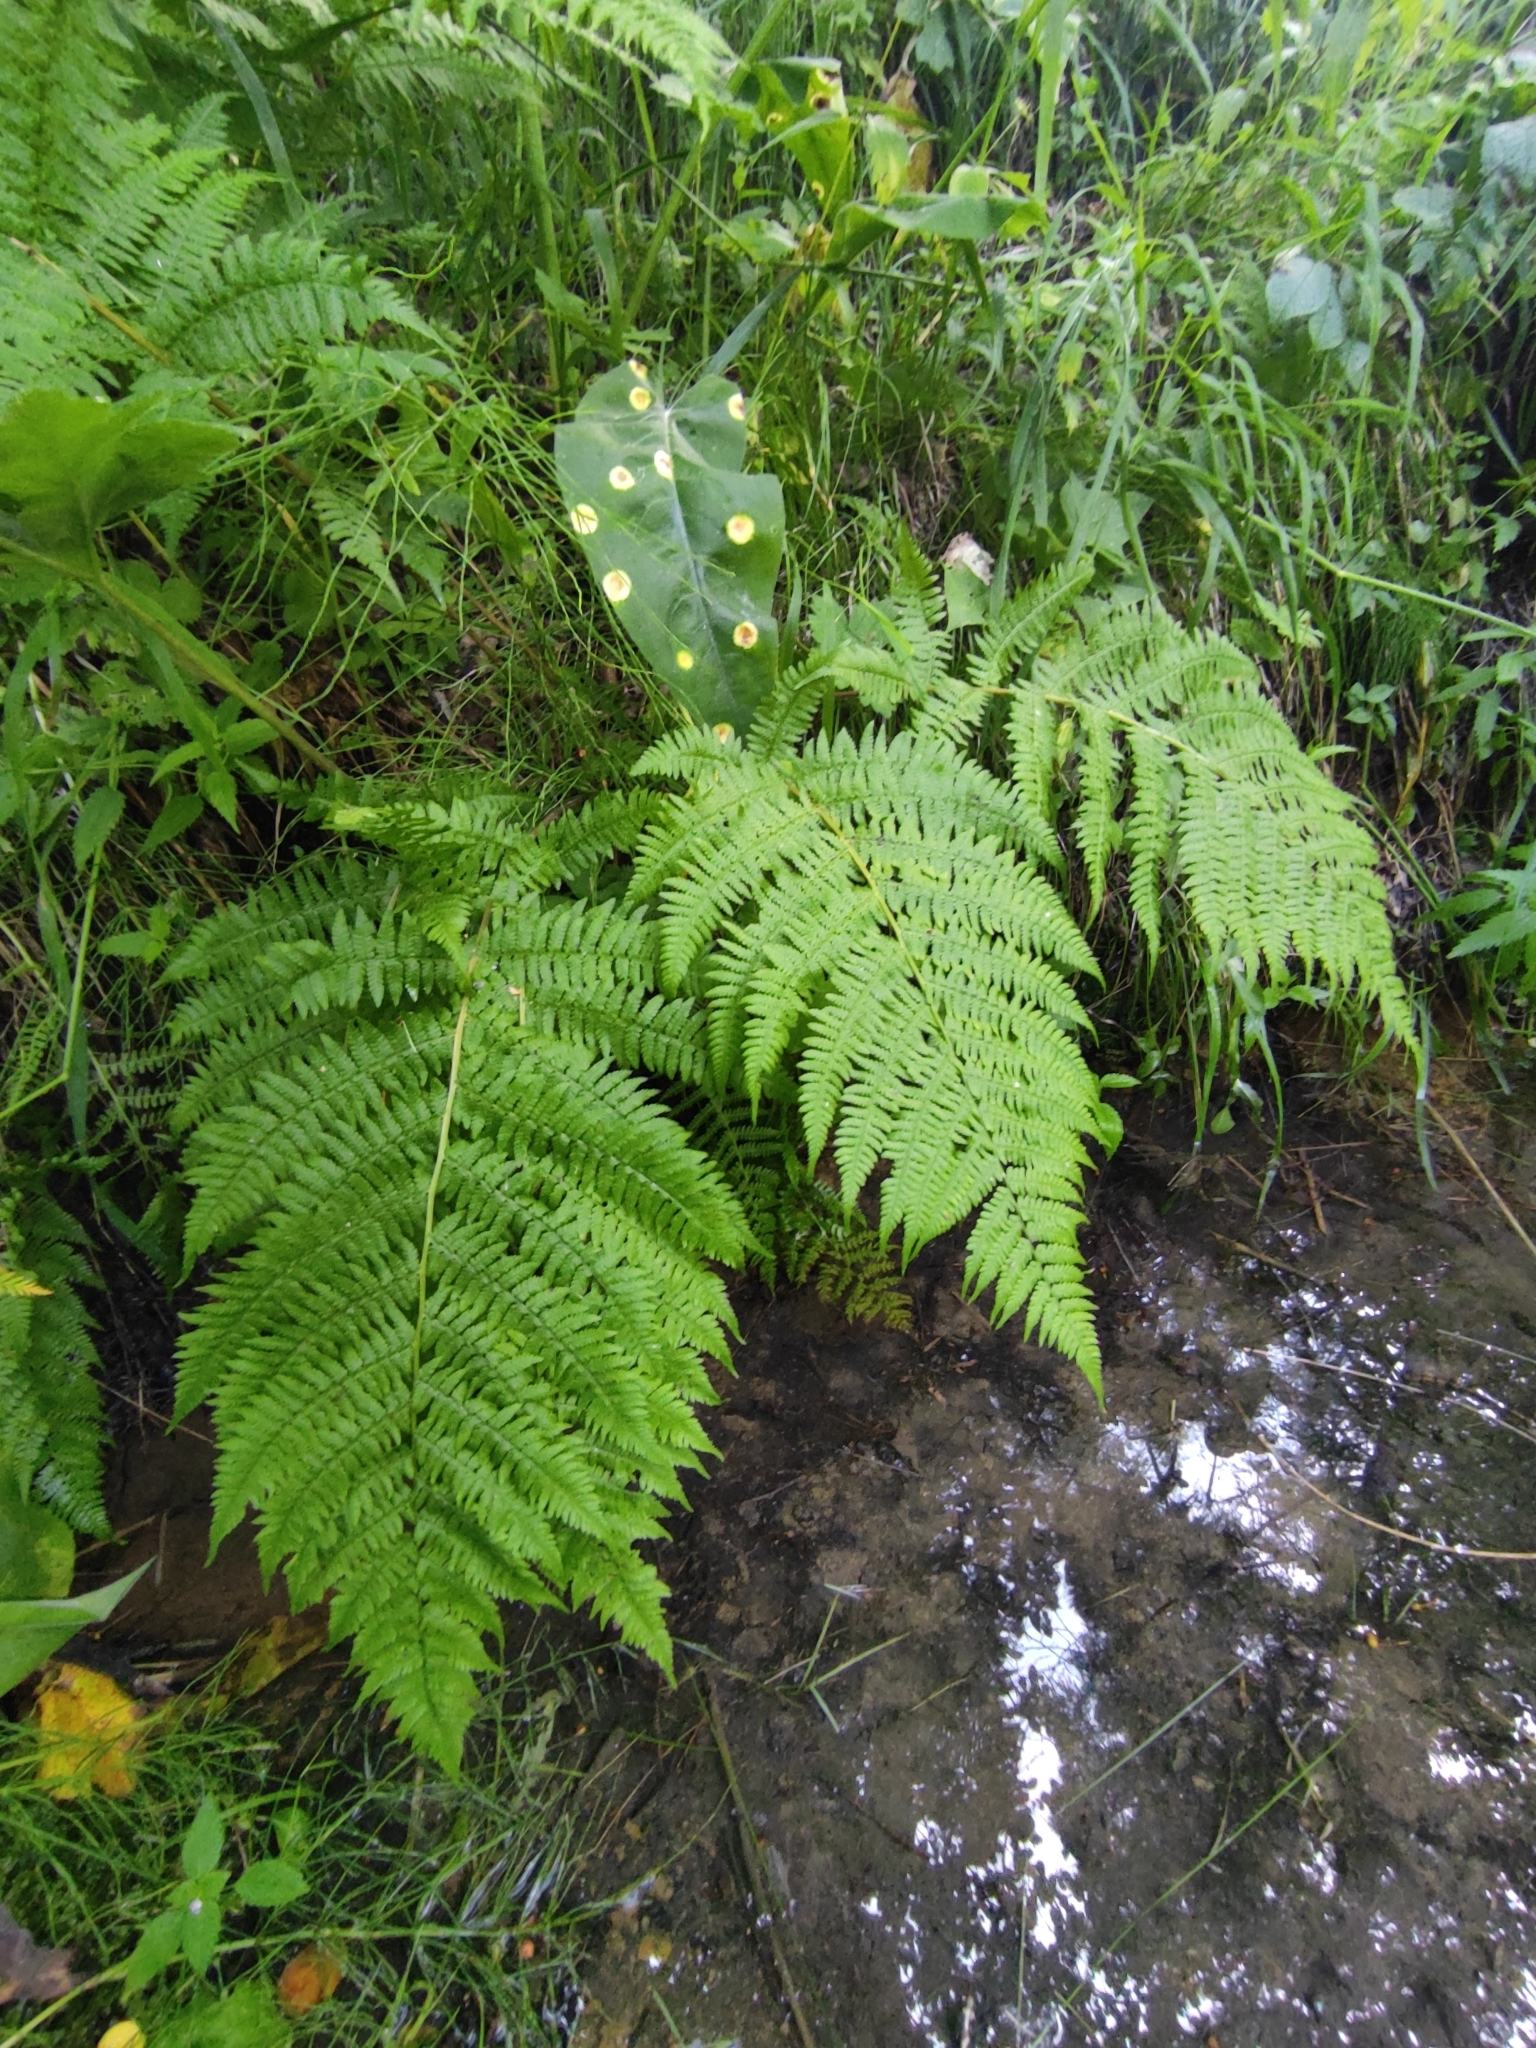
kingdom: Plantae
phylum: Tracheophyta
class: Polypodiopsida
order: Polypodiales
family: Athyriaceae
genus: Athyrium
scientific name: Athyrium filix-femina
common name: Lady fern
